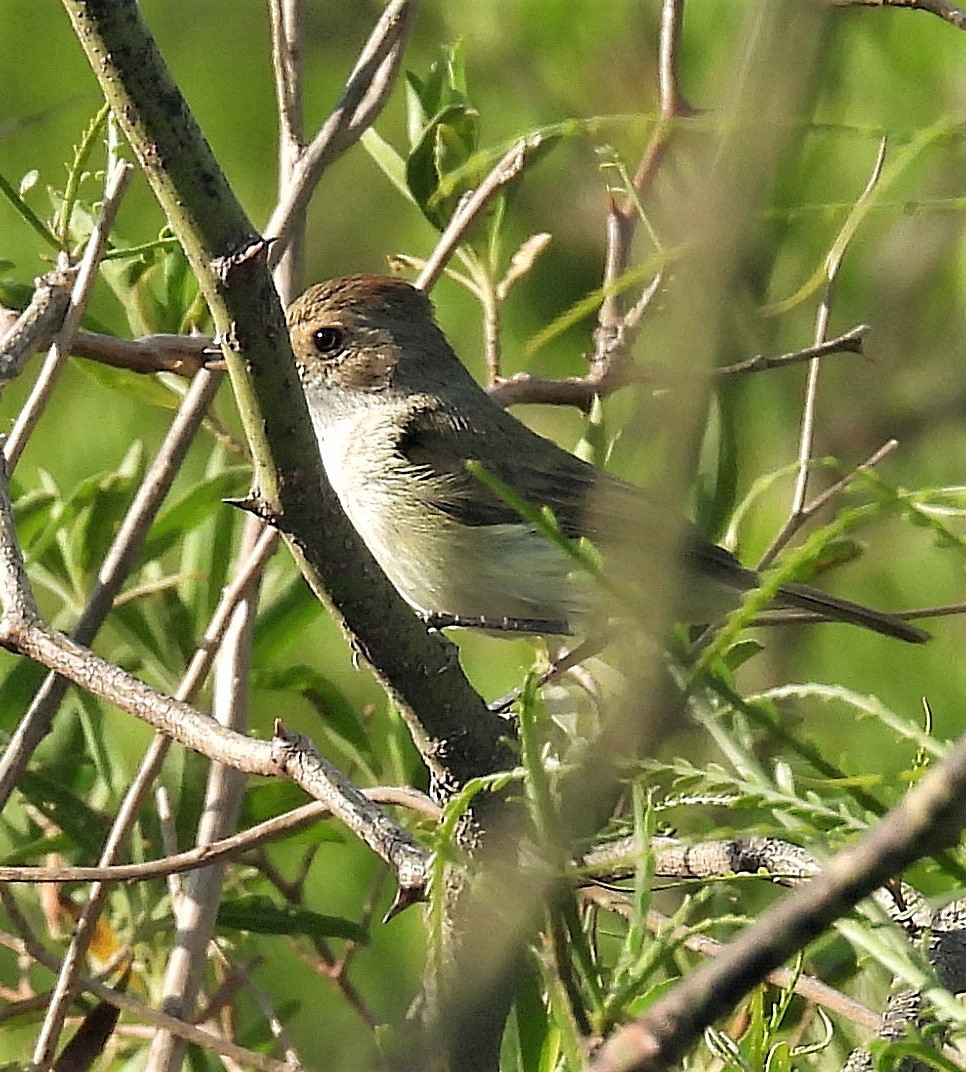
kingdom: Animalia
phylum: Chordata
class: Aves
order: Passeriformes
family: Tyrannidae
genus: Euscarthmus
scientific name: Euscarthmus meloryphus
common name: Tawny-crowned pygmy tyrant
